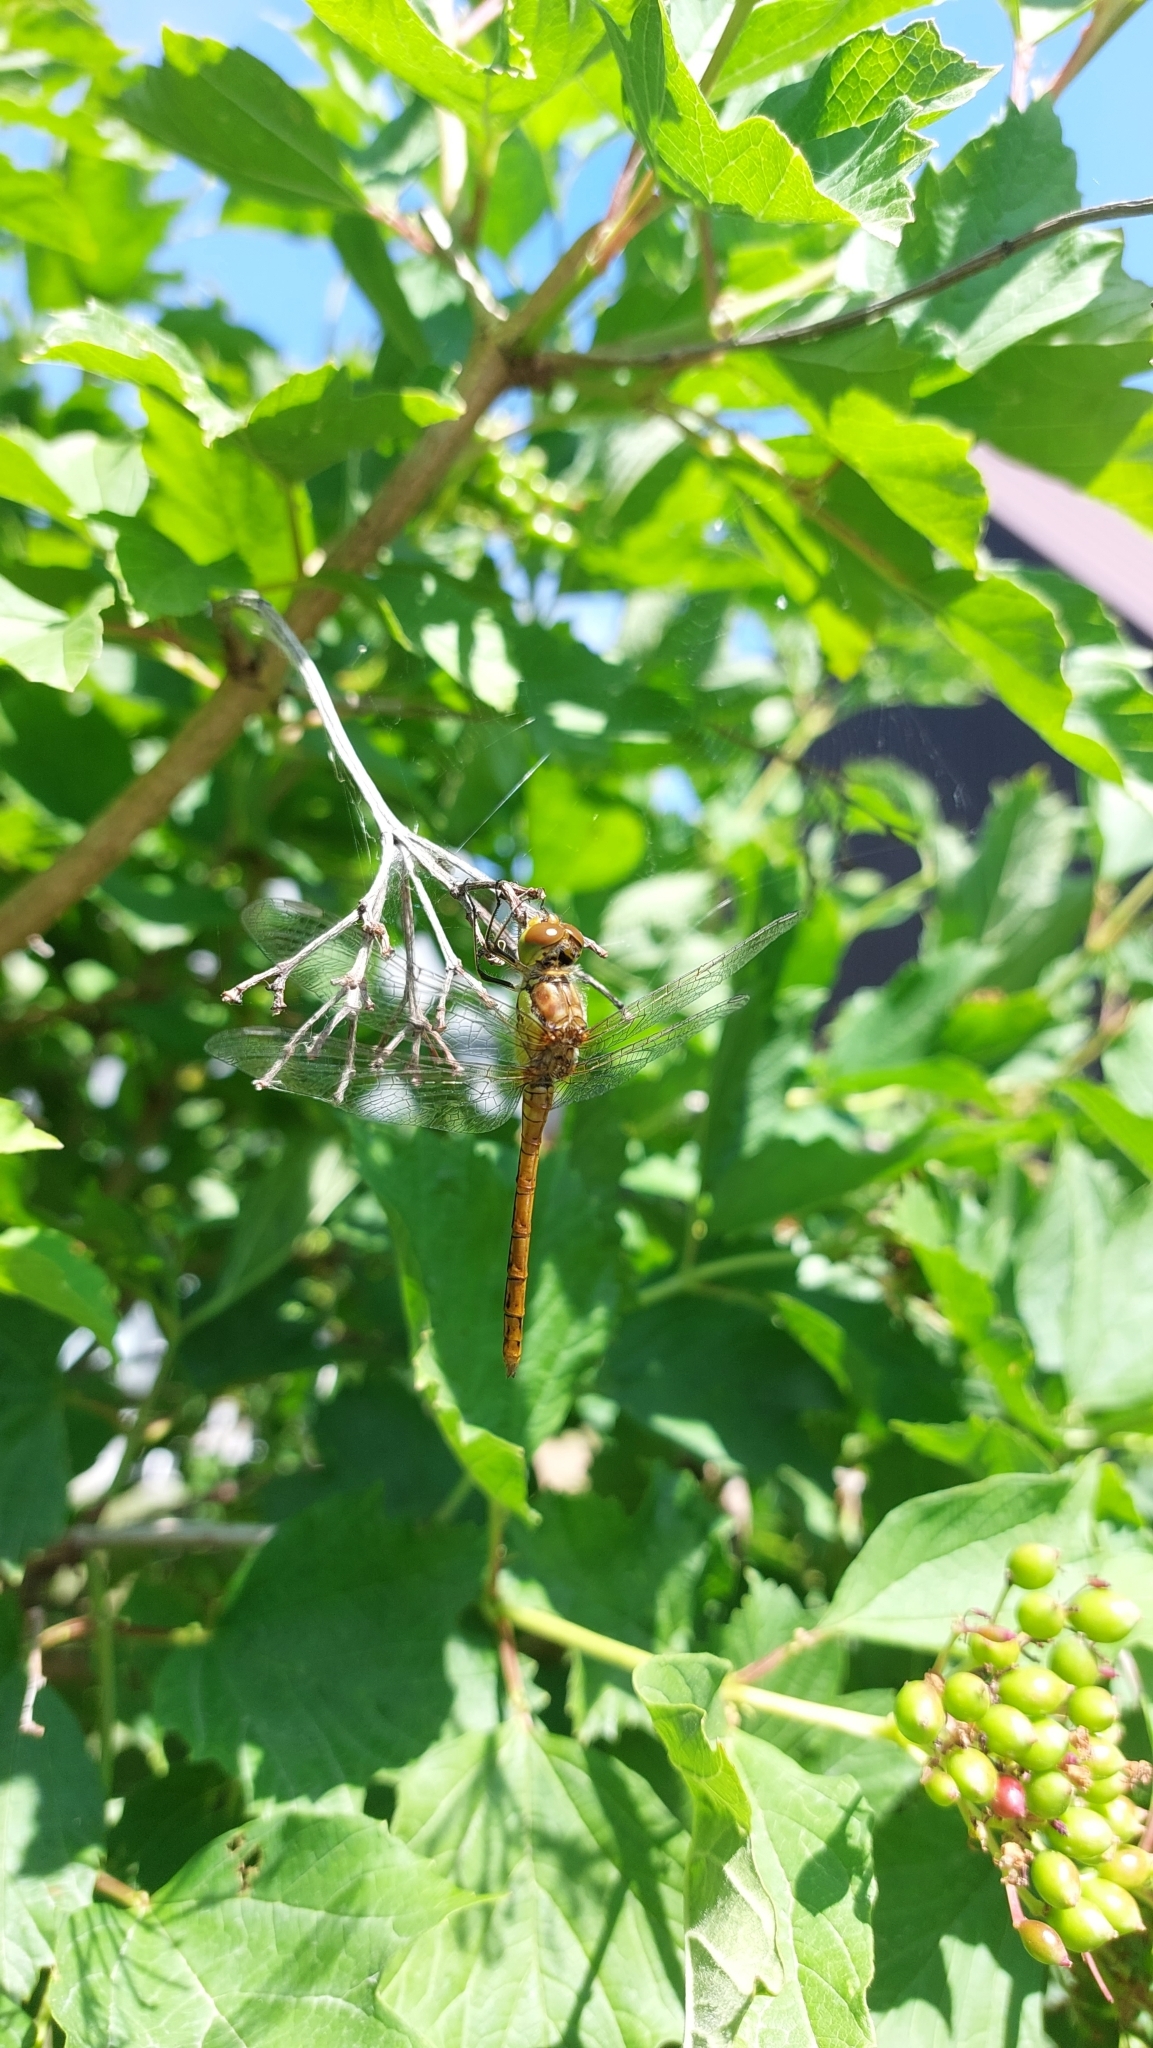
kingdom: Animalia
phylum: Arthropoda
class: Insecta
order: Odonata
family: Libellulidae
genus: Sympetrum
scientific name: Sympetrum striolatum
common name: Common darter
